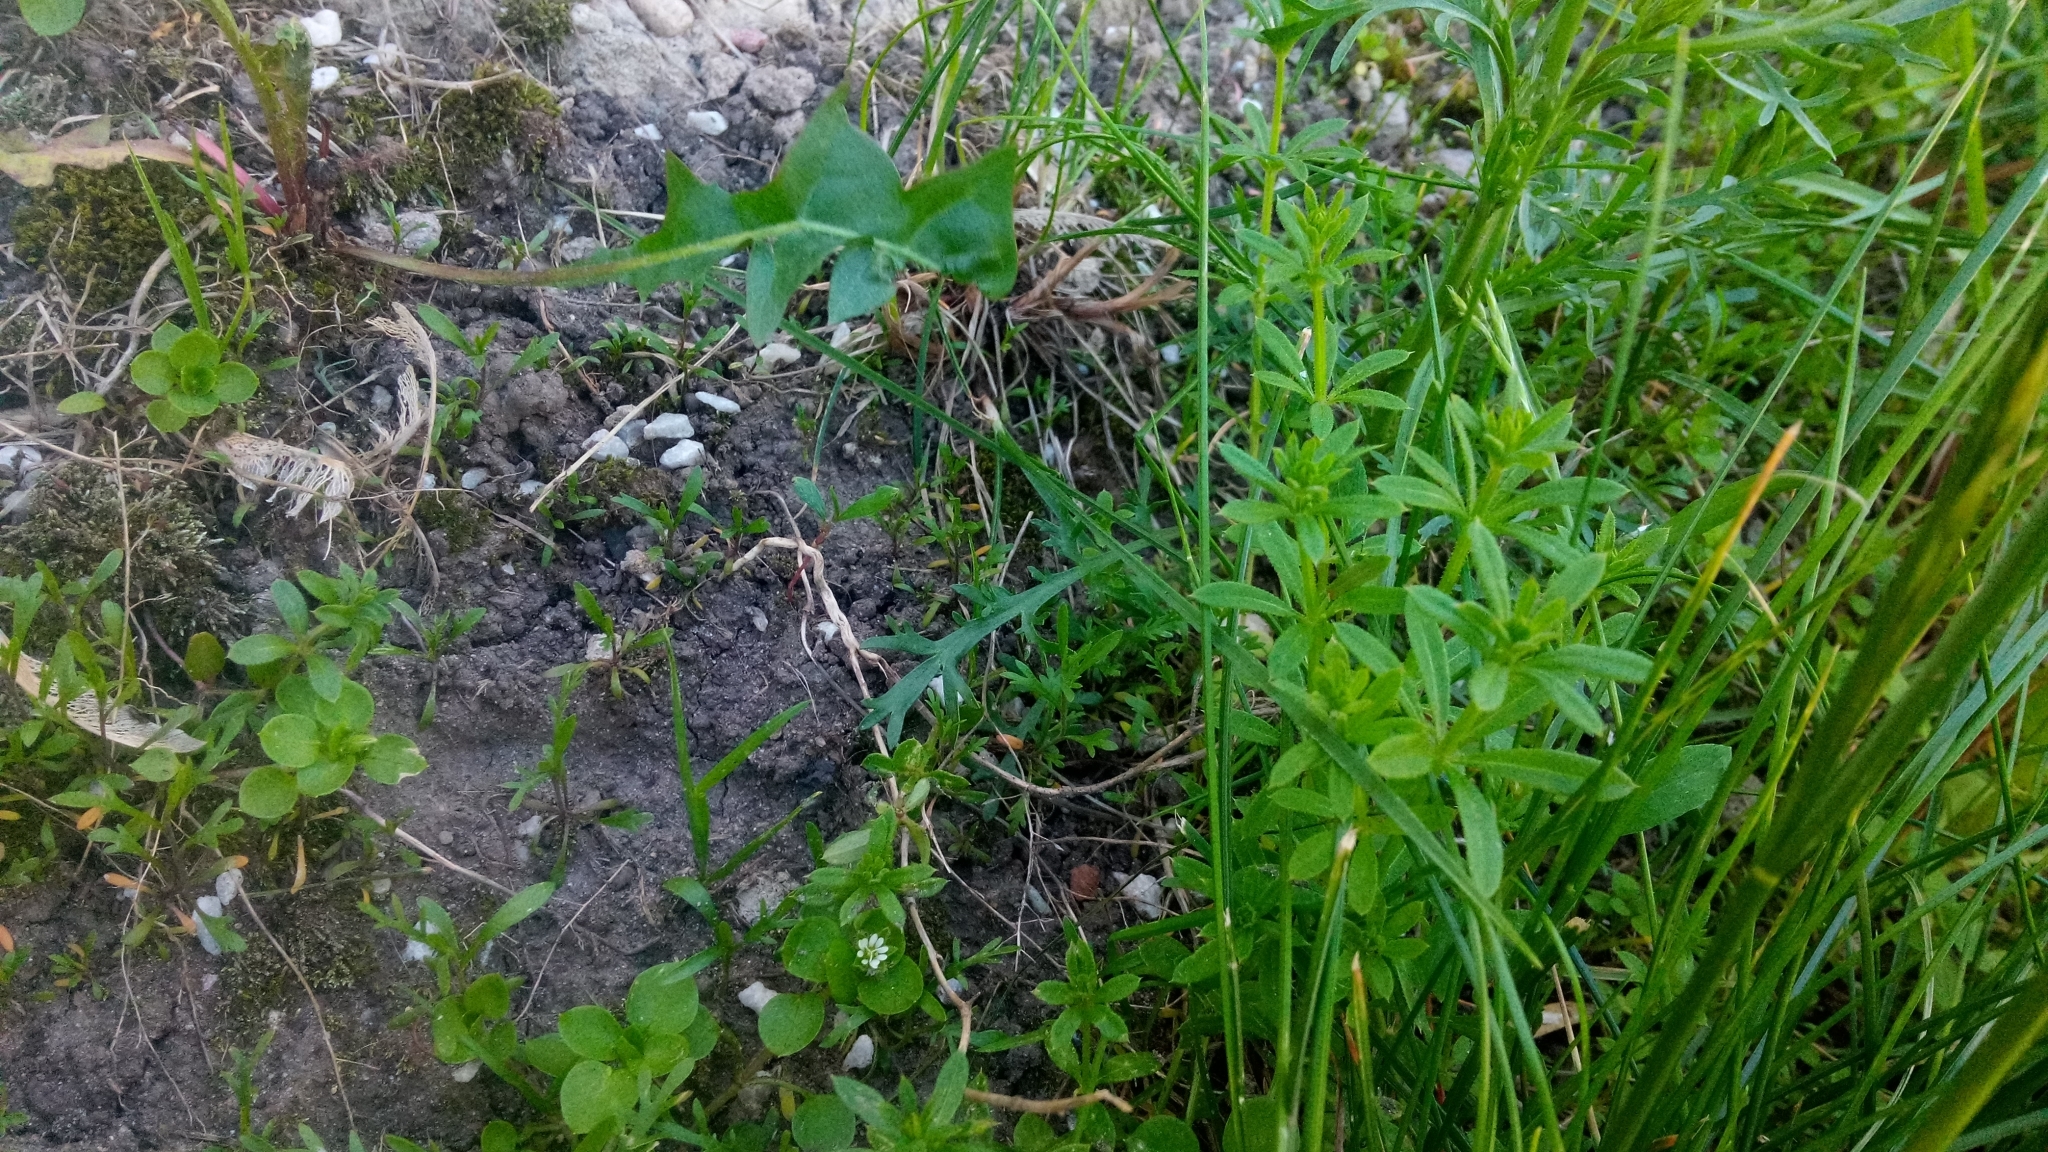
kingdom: Plantae
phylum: Tracheophyta
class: Magnoliopsida
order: Gentianales
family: Rubiaceae
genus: Galium
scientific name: Galium mollugo
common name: Hedge bedstraw
